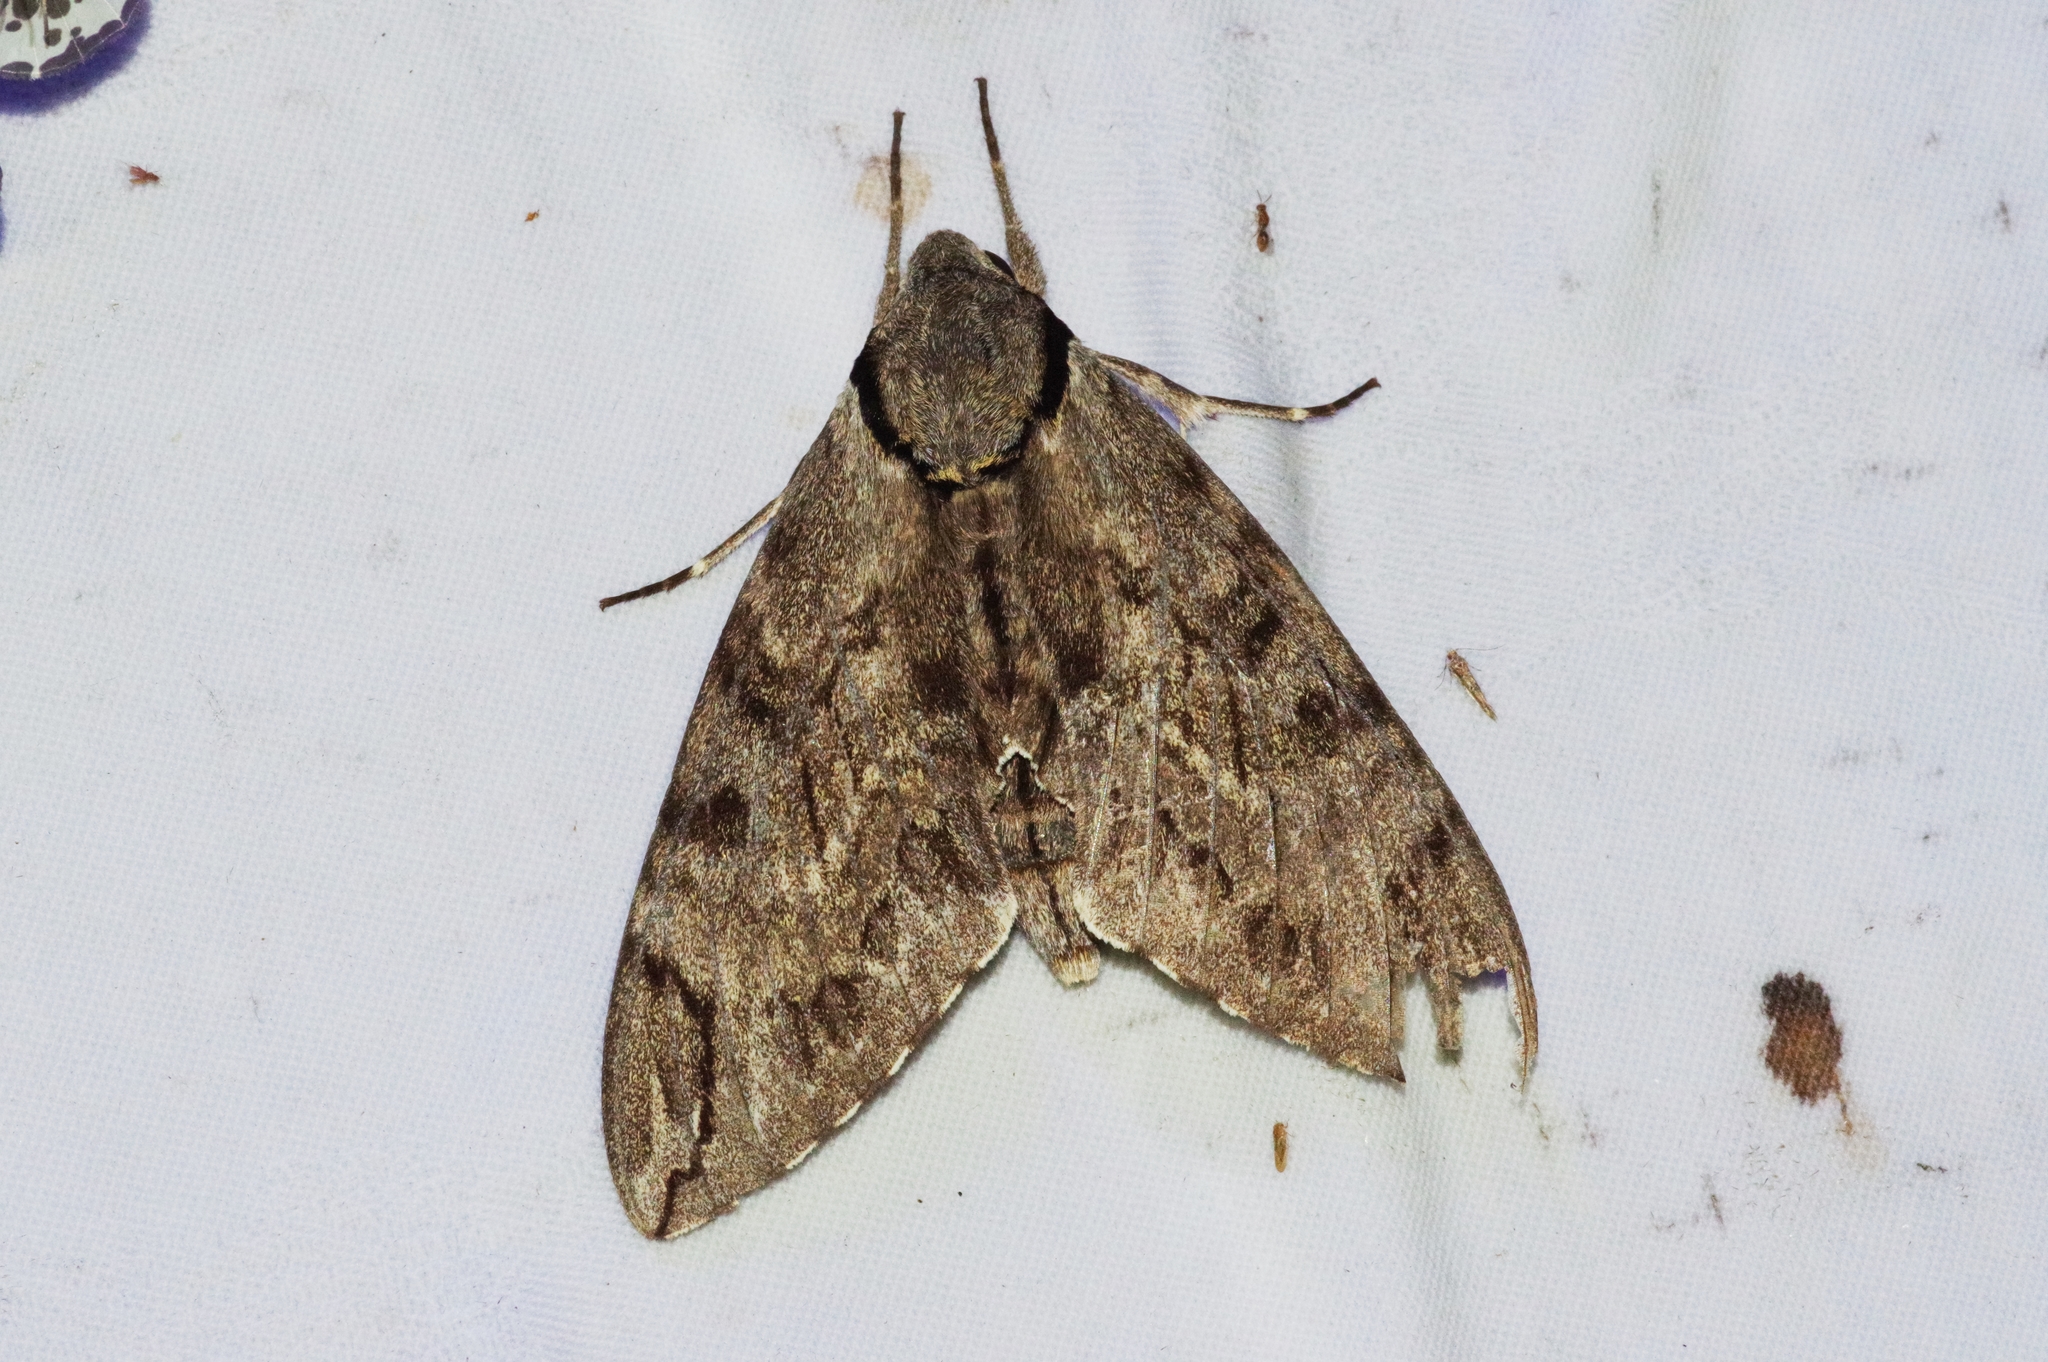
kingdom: Animalia
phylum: Arthropoda
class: Insecta
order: Lepidoptera
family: Sphingidae
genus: Psilogramma
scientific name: Psilogramma increta
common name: Gray hawk moth
